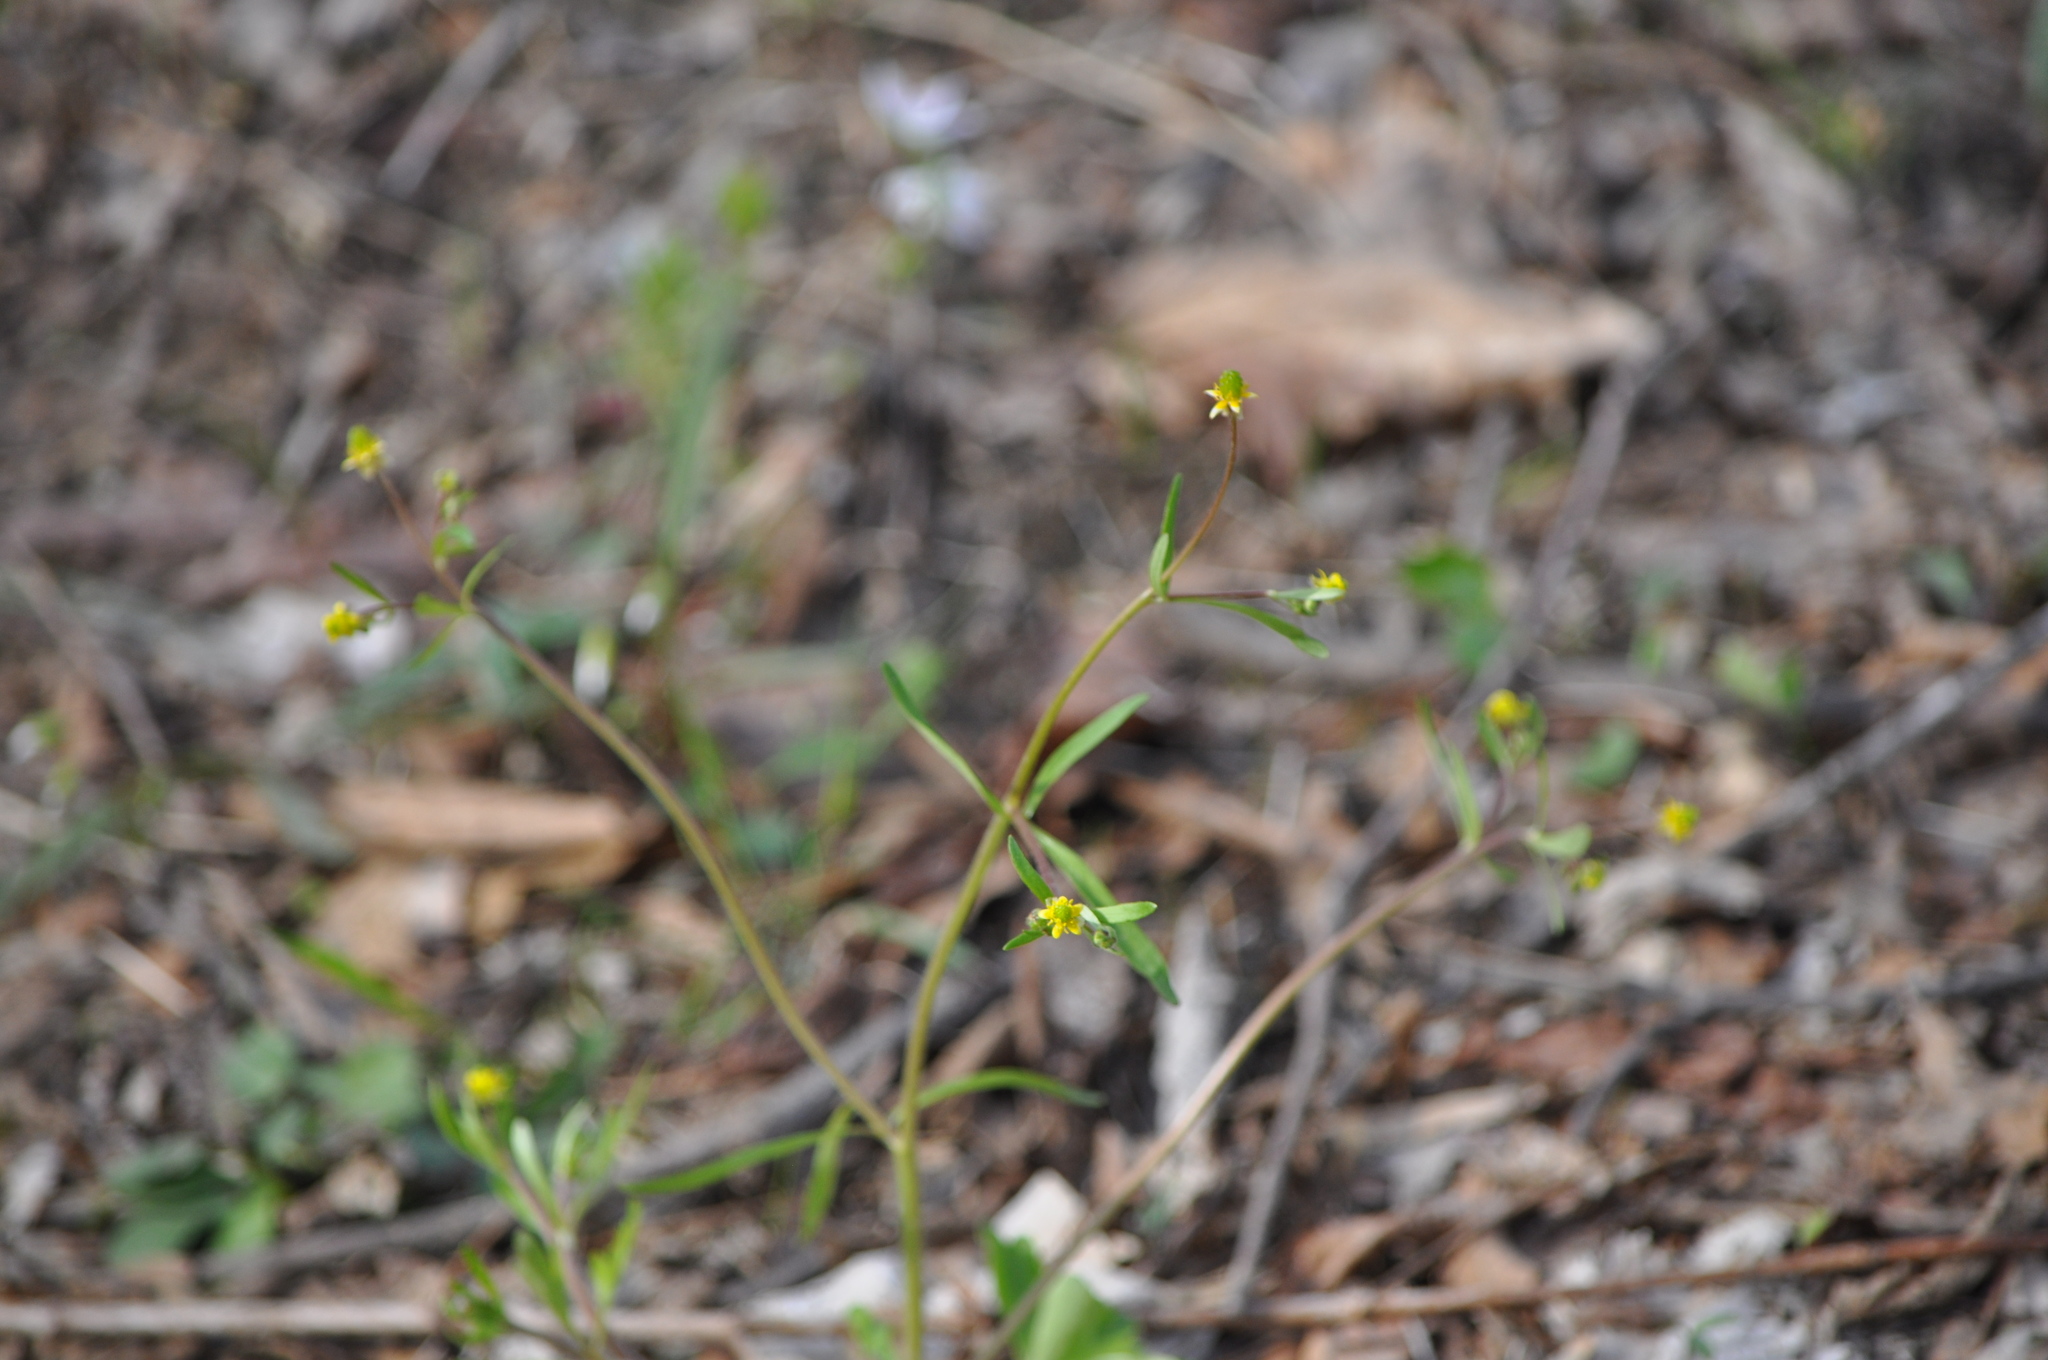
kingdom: Plantae
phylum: Tracheophyta
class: Magnoliopsida
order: Ranunculales
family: Ranunculaceae
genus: Ranunculus
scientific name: Ranunculus micranthus
